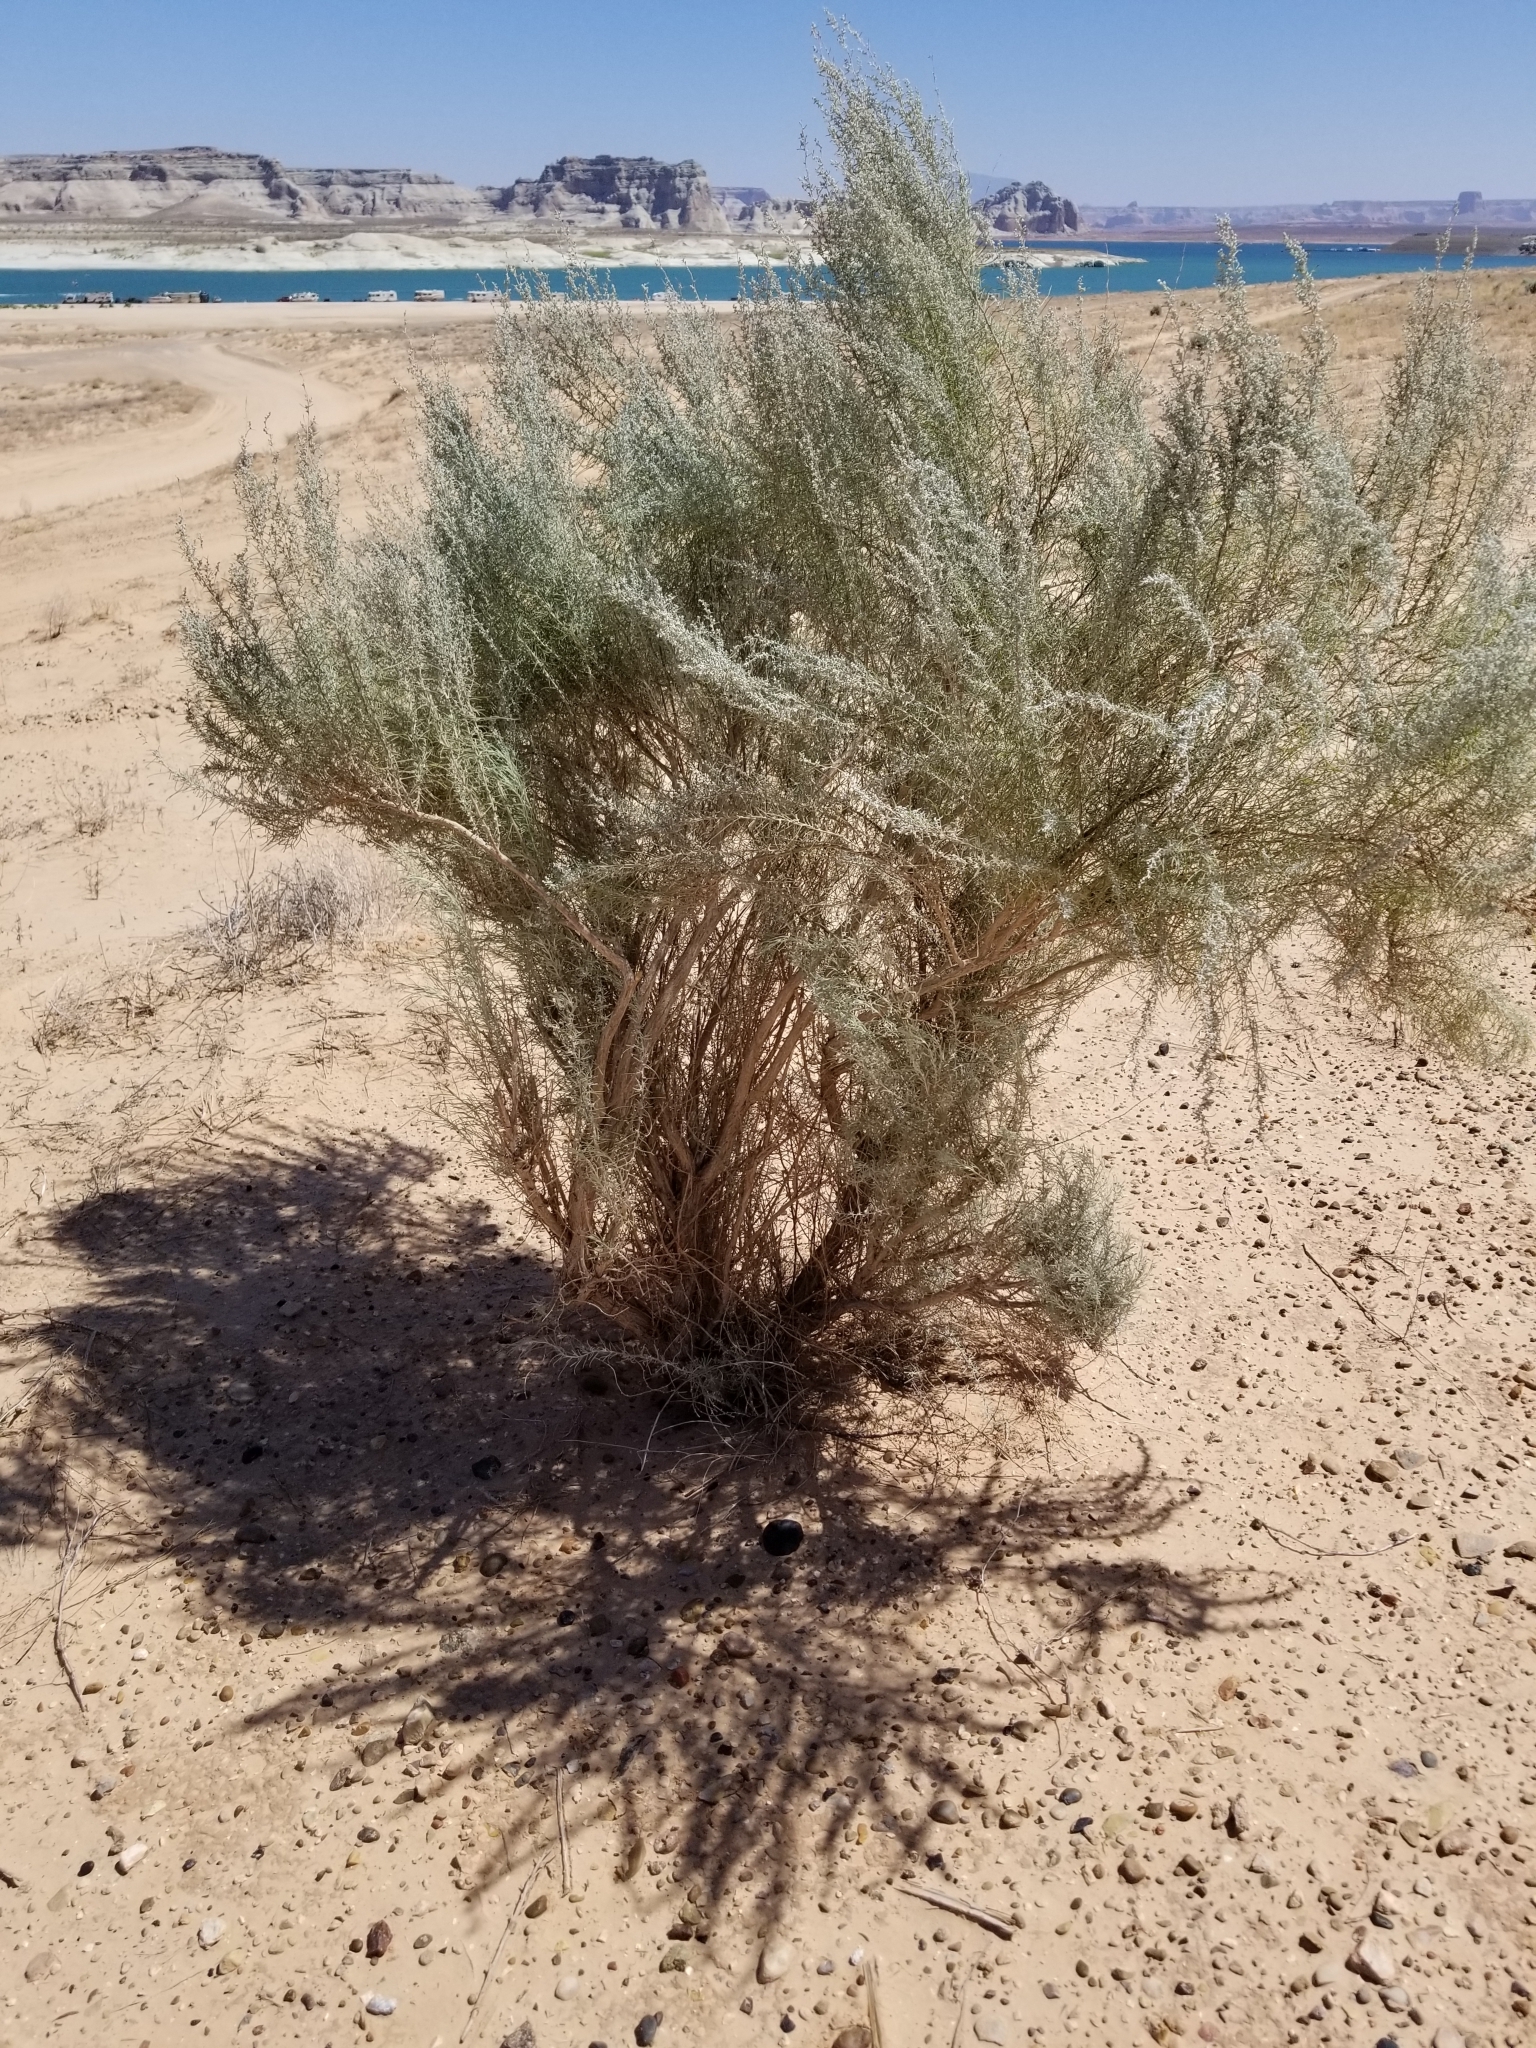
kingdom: Plantae
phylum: Tracheophyta
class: Magnoliopsida
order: Asterales
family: Asteraceae
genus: Artemisia
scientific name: Artemisia filifolia
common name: Sand-sage
